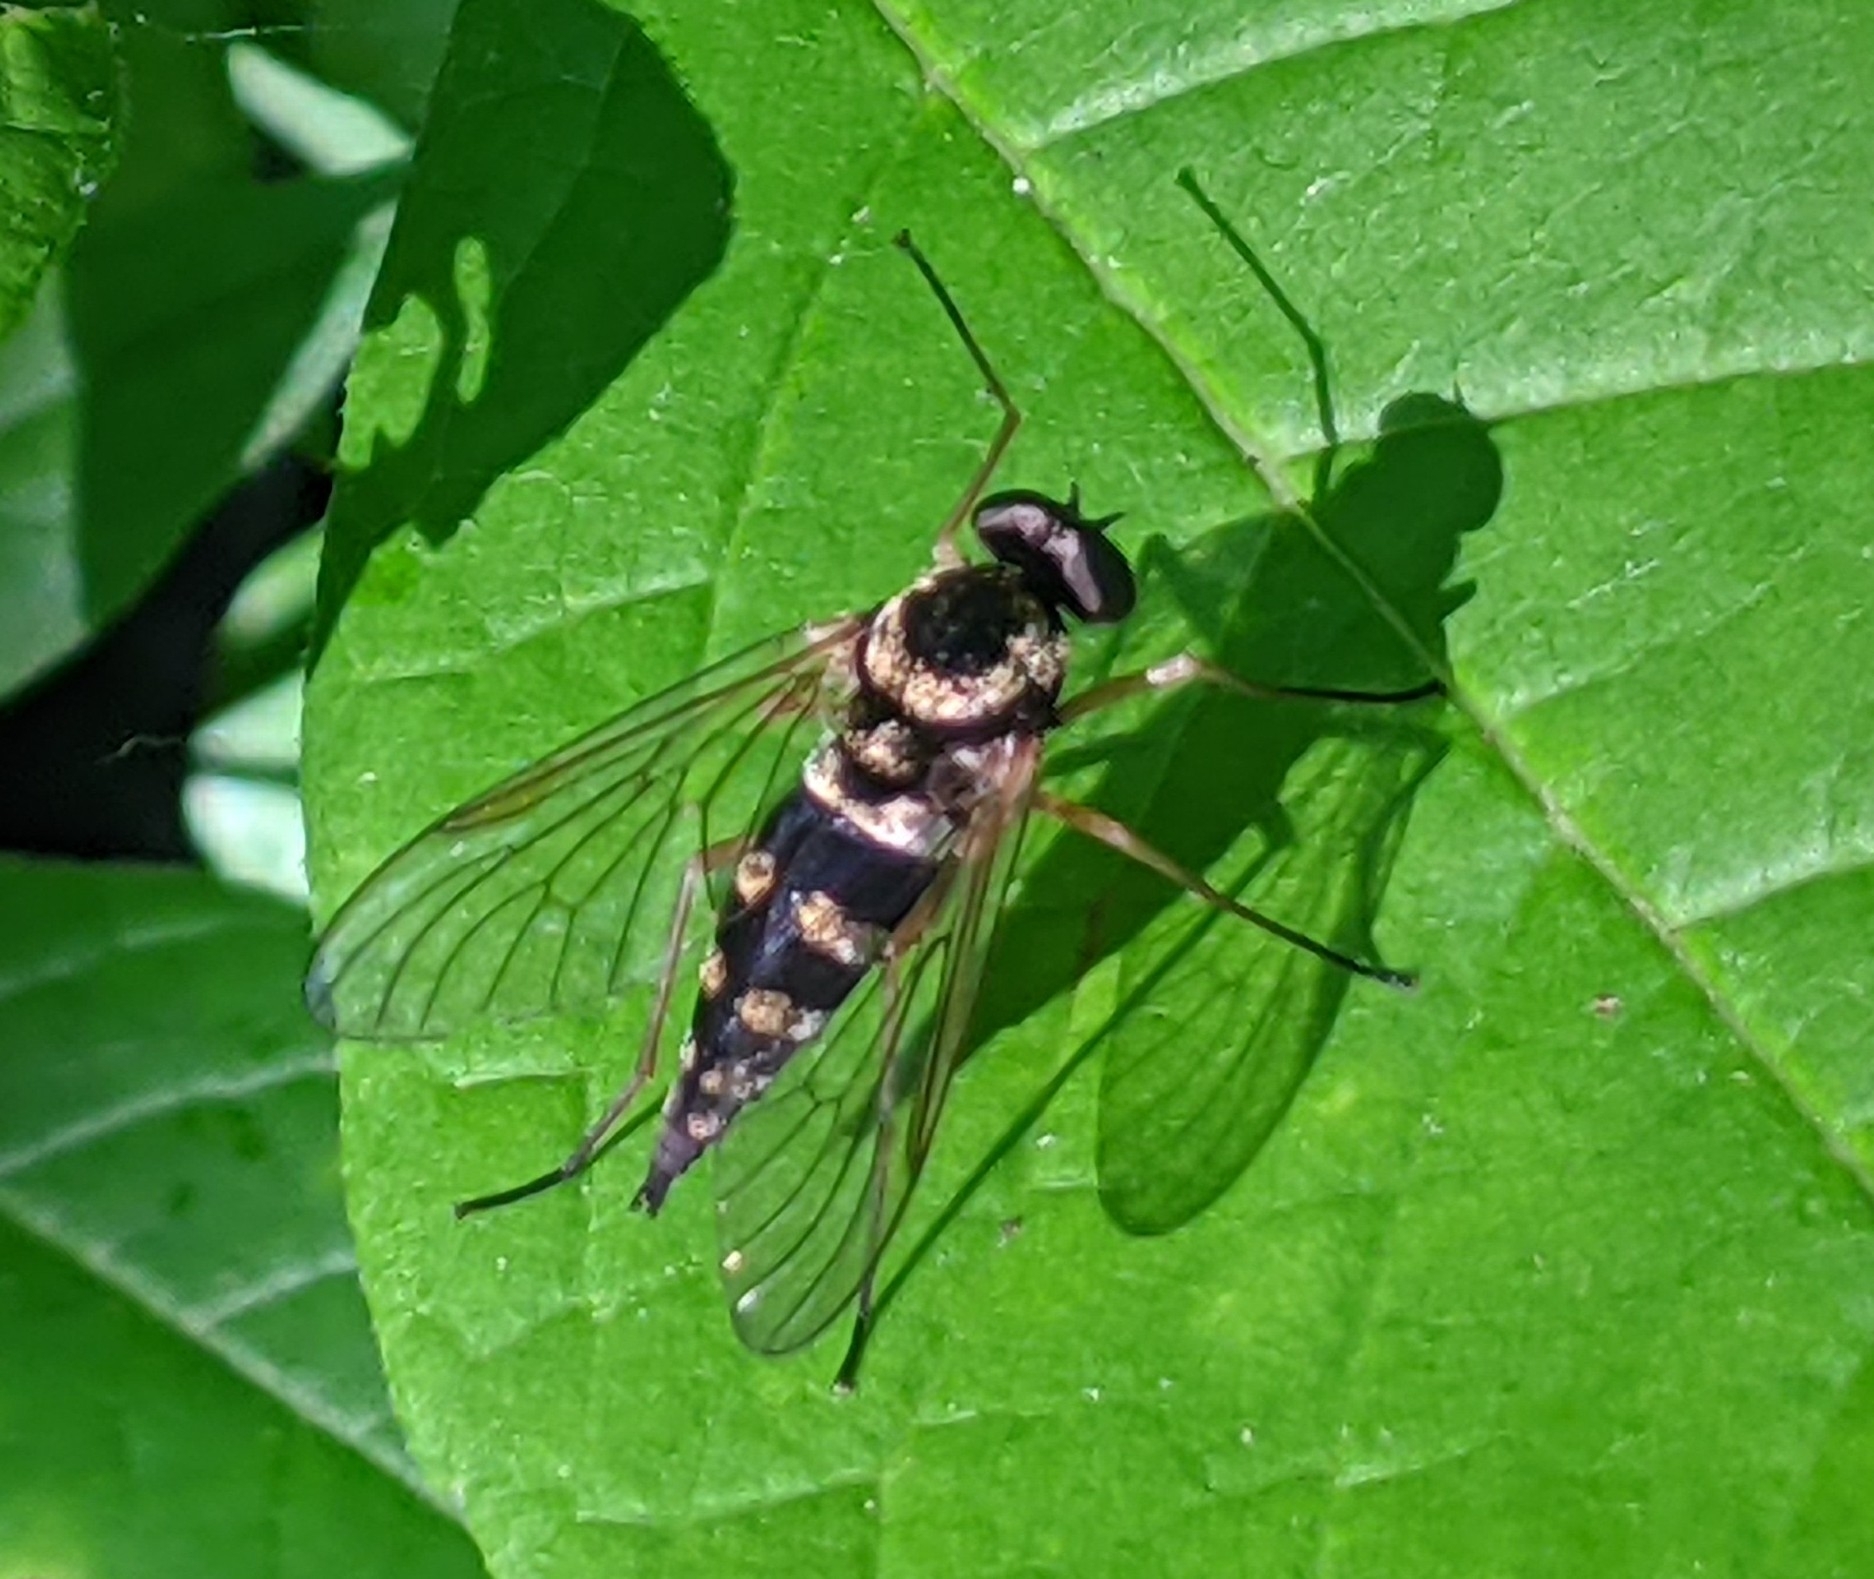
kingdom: Animalia
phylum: Arthropoda
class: Insecta
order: Diptera
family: Rhagionidae
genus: Chrysopilus
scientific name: Chrysopilus ornatus
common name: Ornate snipe fly
